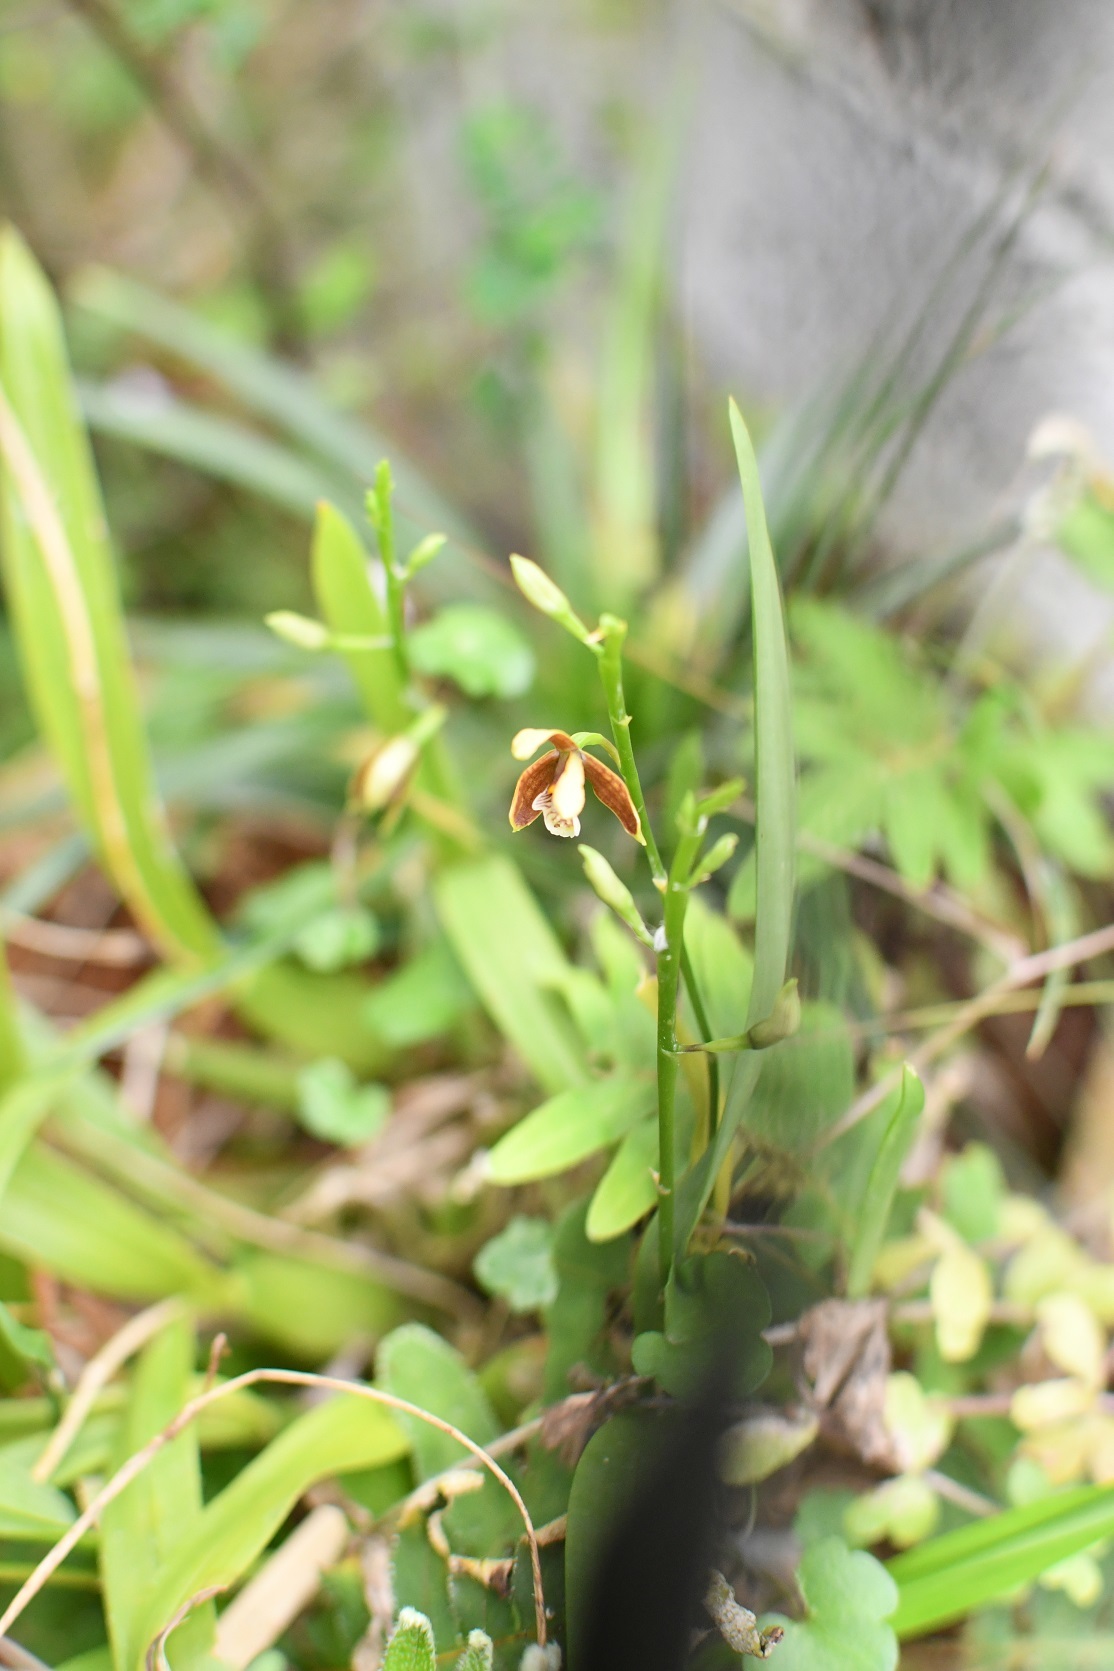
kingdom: Plantae
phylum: Tracheophyta
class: Liliopsida
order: Asparagales
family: Orchidaceae
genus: Prosthechea
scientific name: Prosthechea livida
